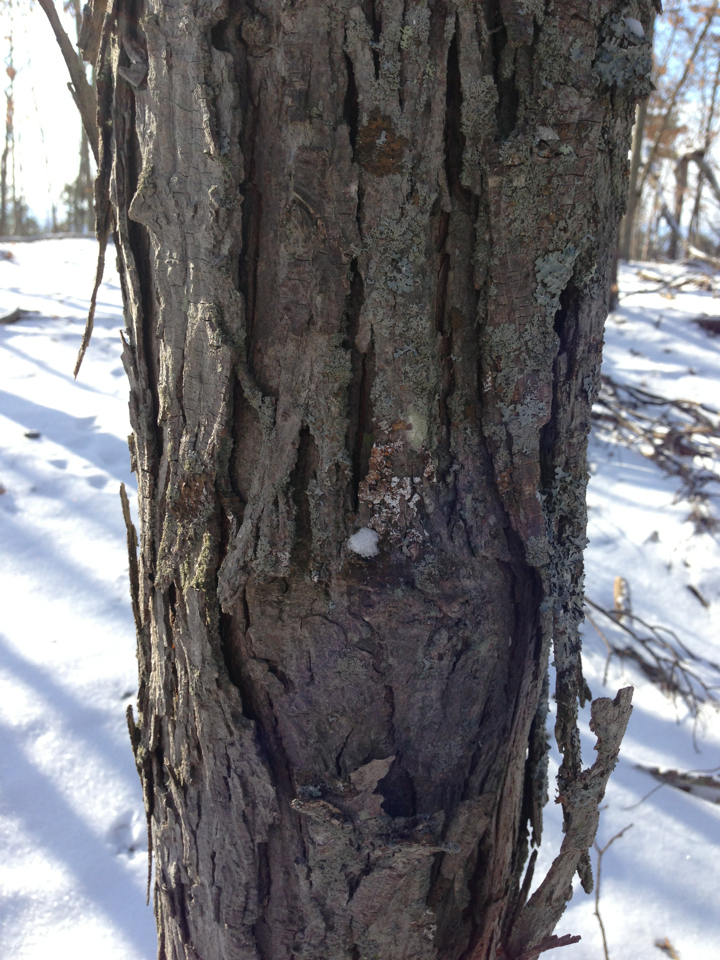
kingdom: Plantae
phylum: Tracheophyta
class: Magnoliopsida
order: Fagales
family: Juglandaceae
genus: Carya
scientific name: Carya ovata
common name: Shagbark hickory
